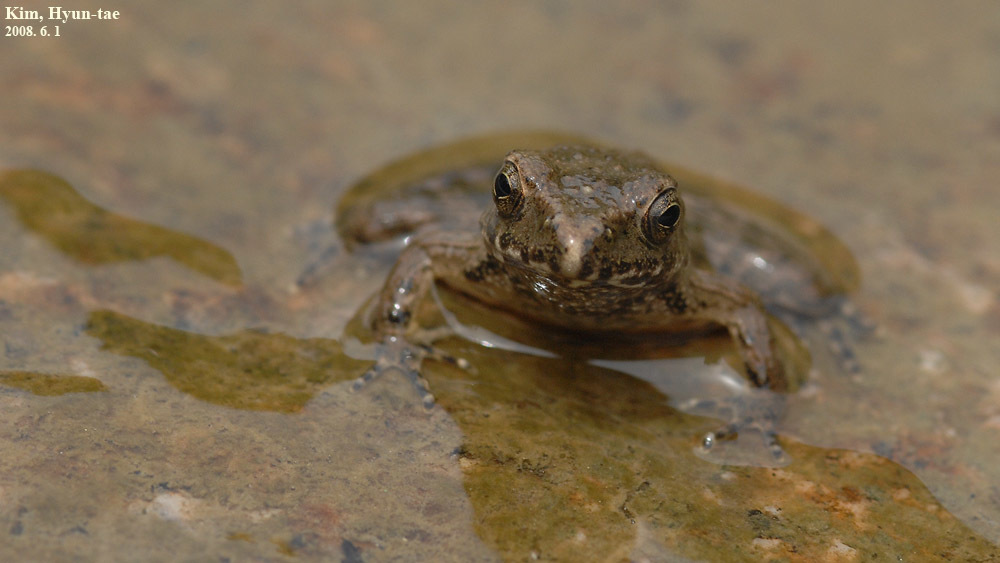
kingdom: Animalia
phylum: Chordata
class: Amphibia
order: Anura
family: Ranidae
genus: Glandirana
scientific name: Glandirana emeljanovi
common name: Northeast china rough-skinned frog
